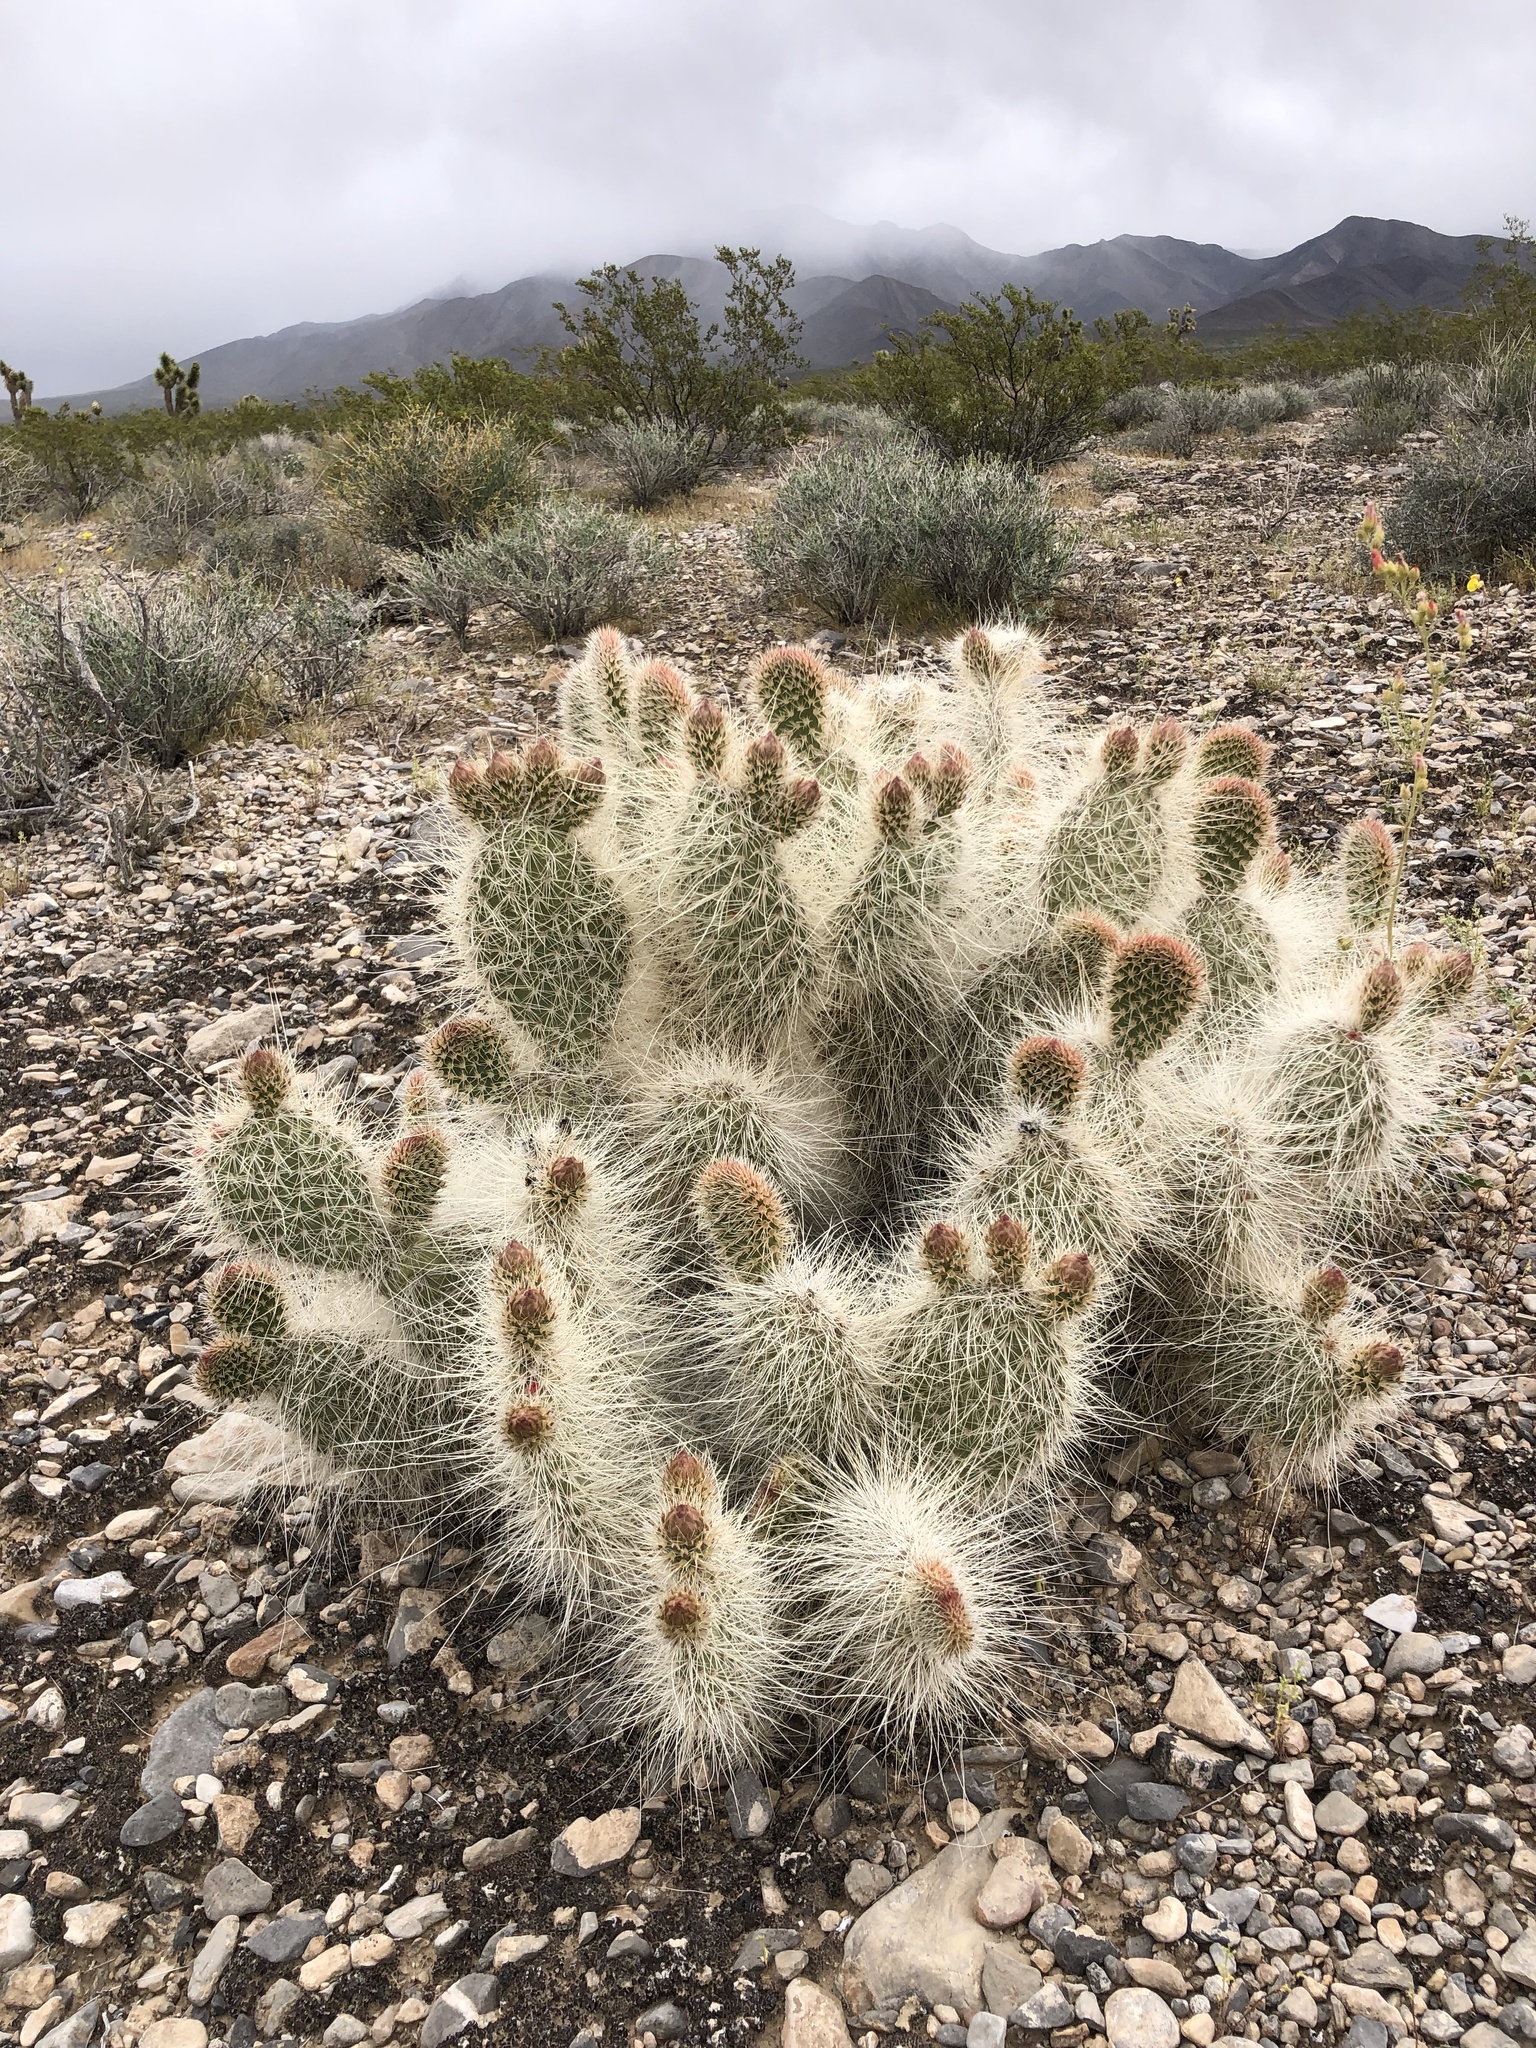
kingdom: Plantae
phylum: Tracheophyta
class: Magnoliopsida
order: Caryophyllales
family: Cactaceae
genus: Opuntia
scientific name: Opuntia polyacantha
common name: Plains prickly-pear
